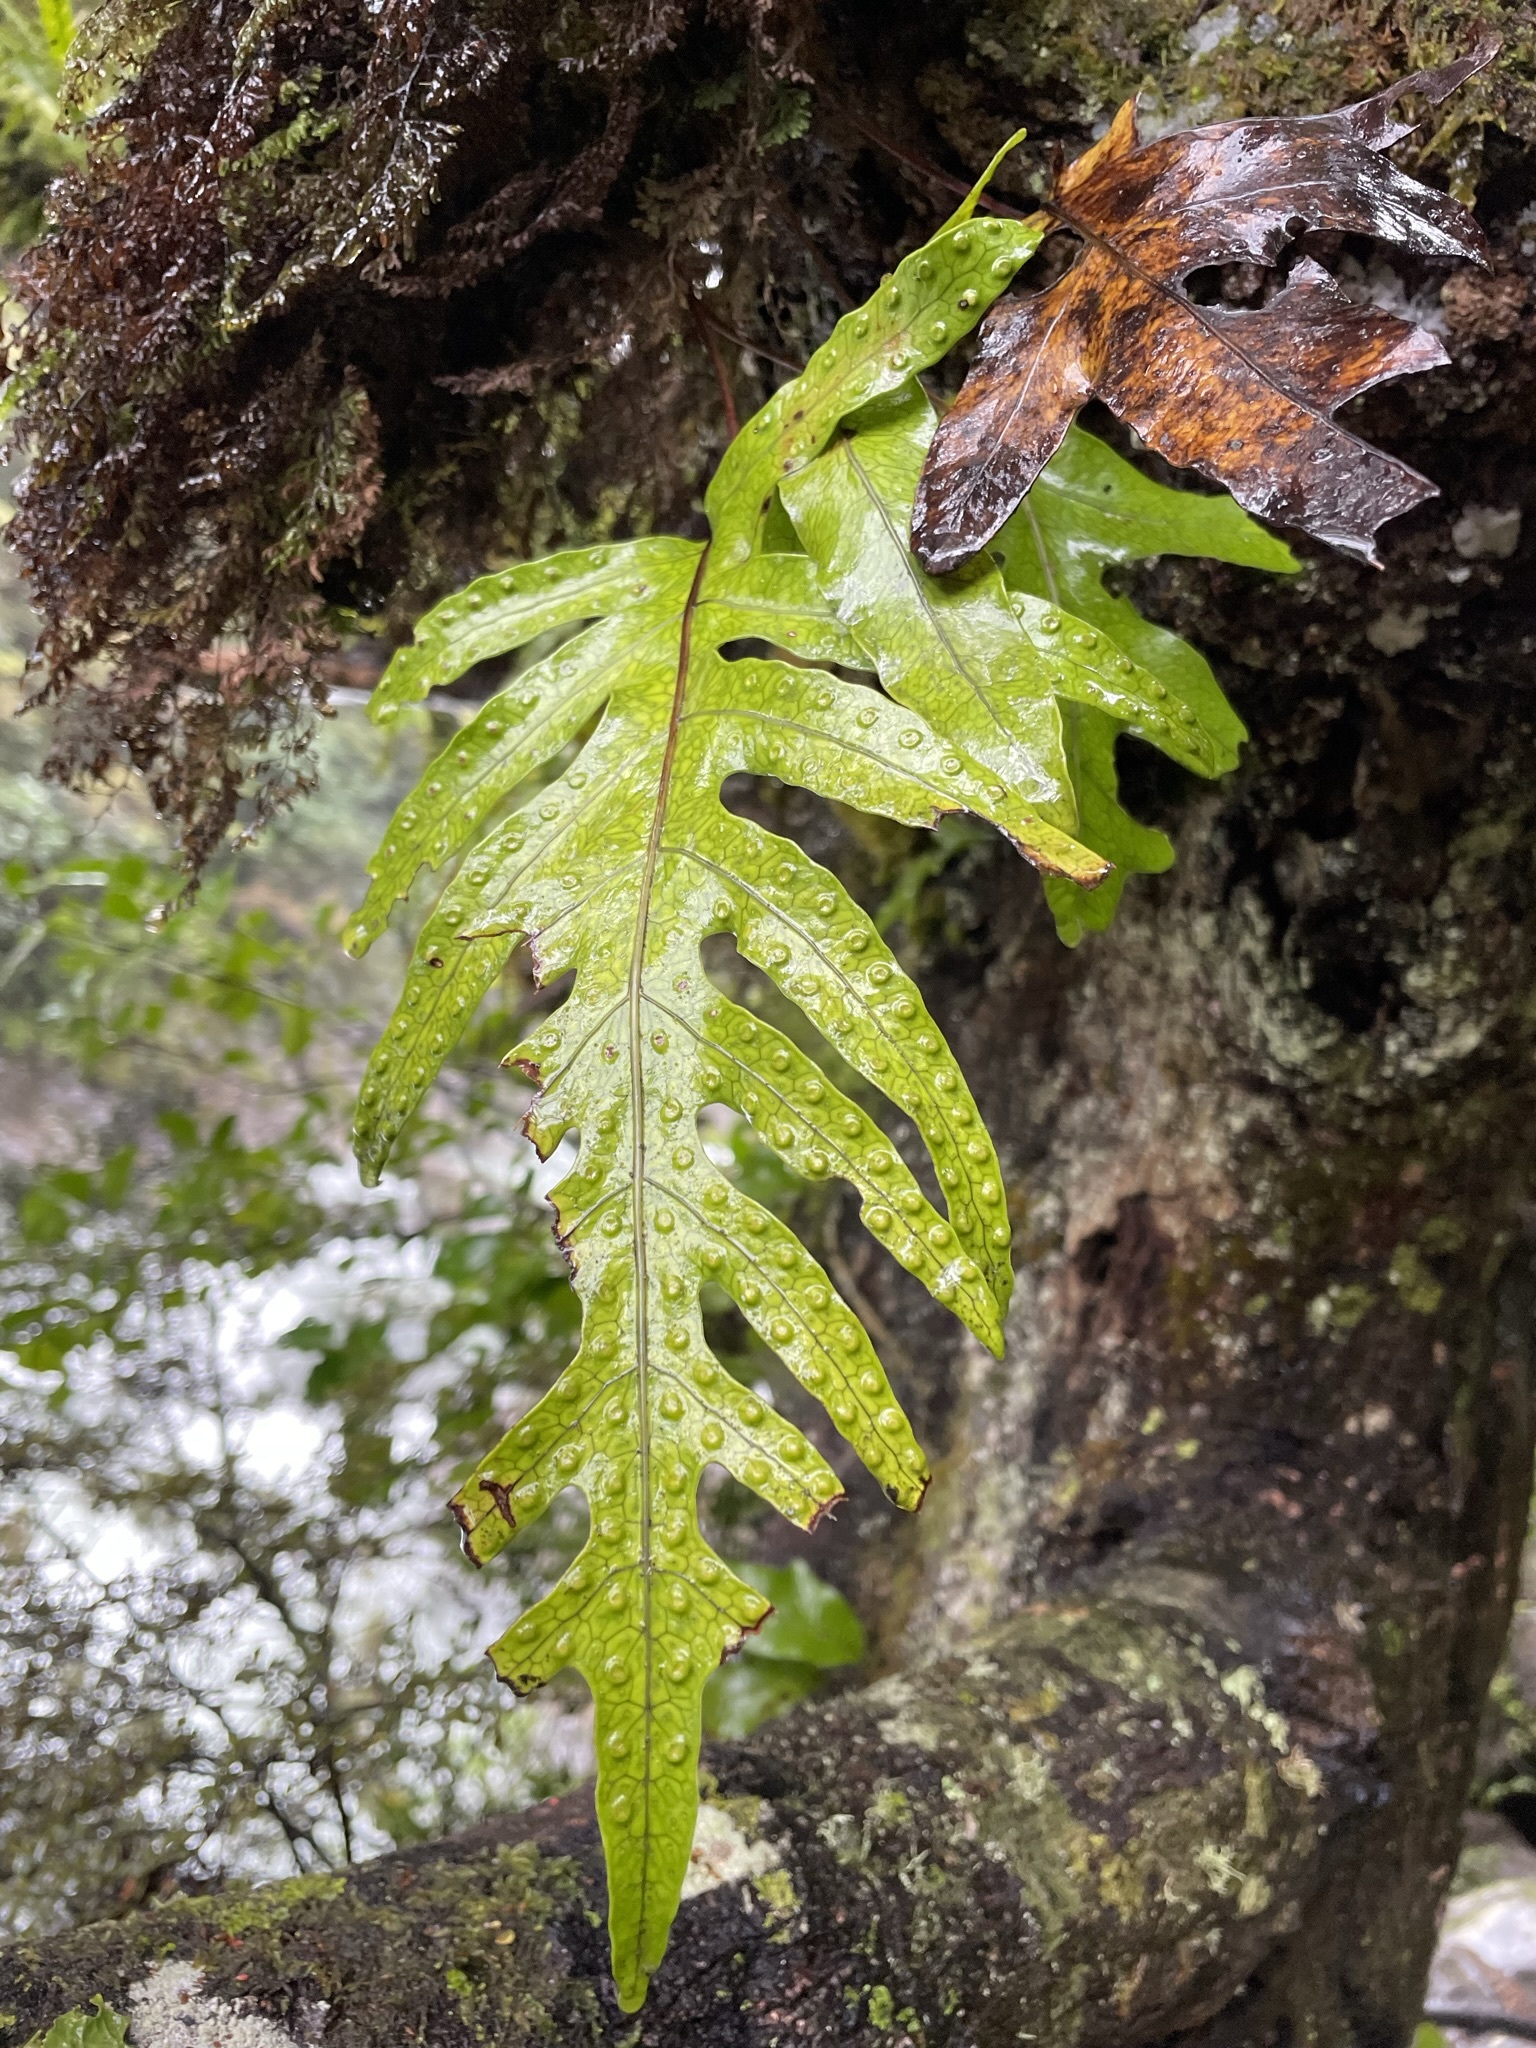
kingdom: Plantae
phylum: Tracheophyta
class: Polypodiopsida
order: Polypodiales
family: Polypodiaceae
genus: Lecanopteris
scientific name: Lecanopteris pustulata
